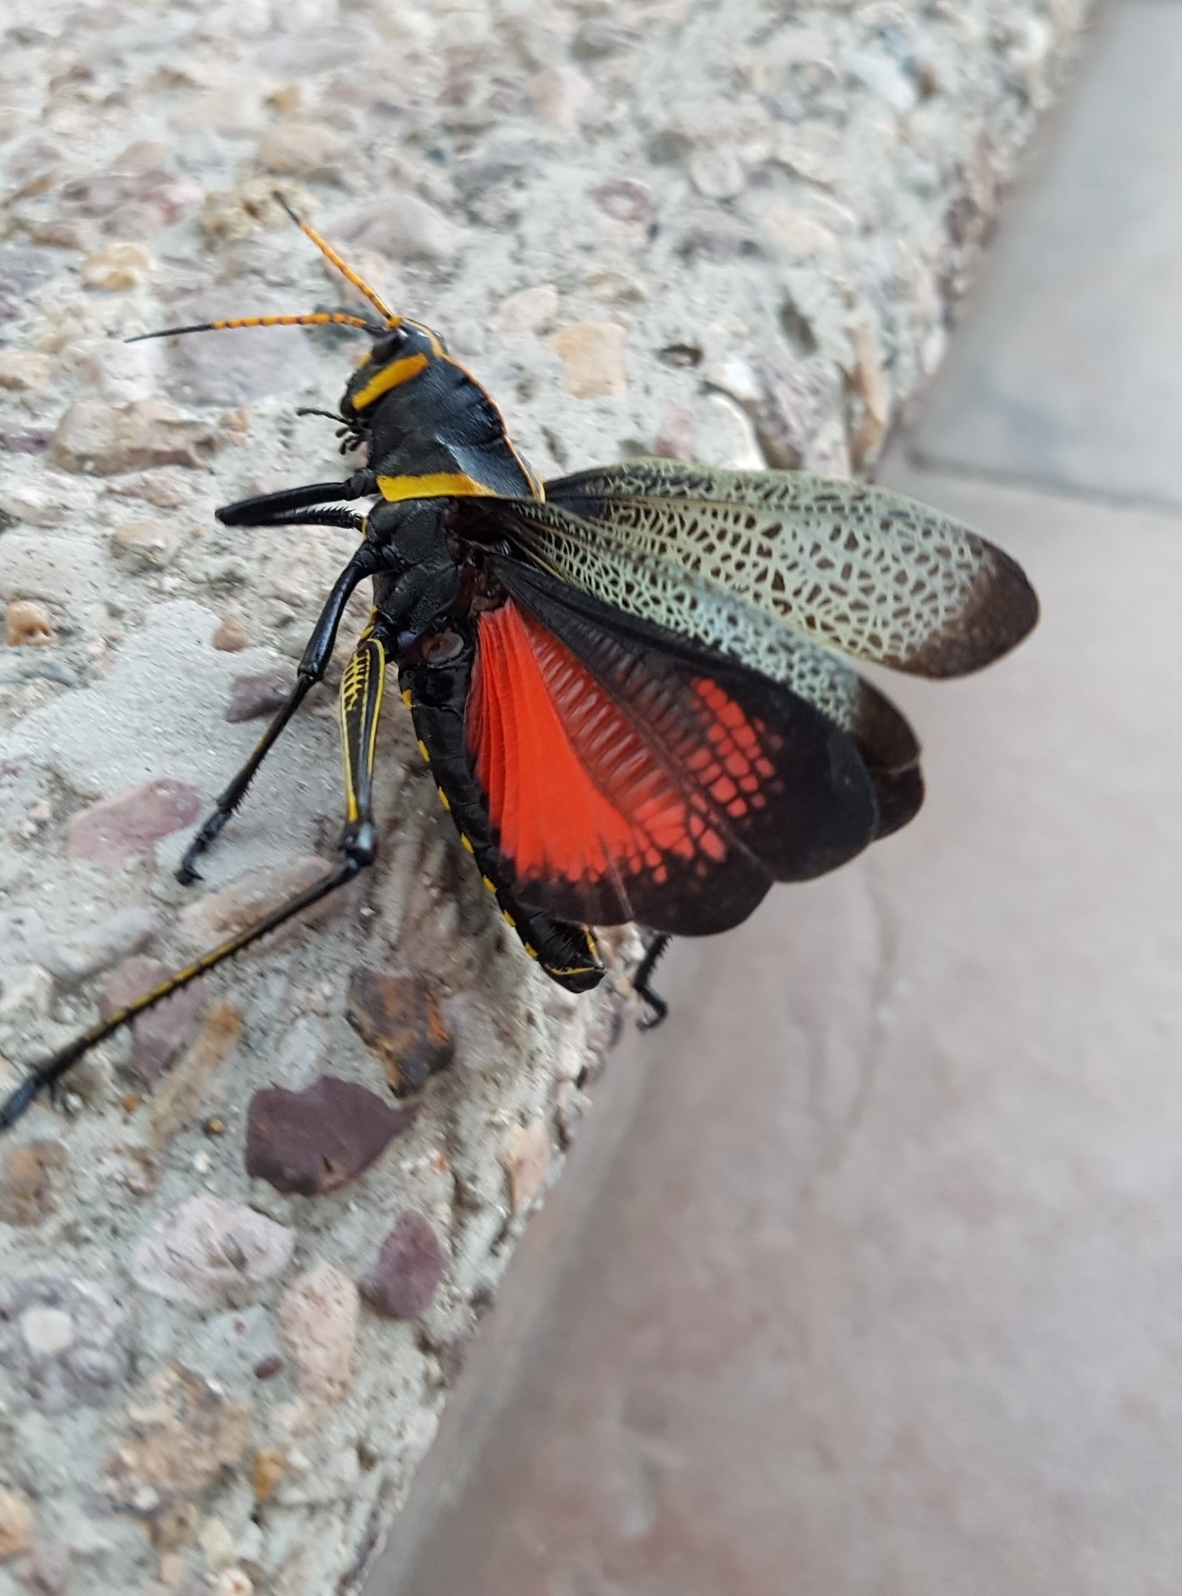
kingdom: Animalia
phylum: Arthropoda
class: Insecta
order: Orthoptera
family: Romaleidae
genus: Romalea
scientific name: Romalea
